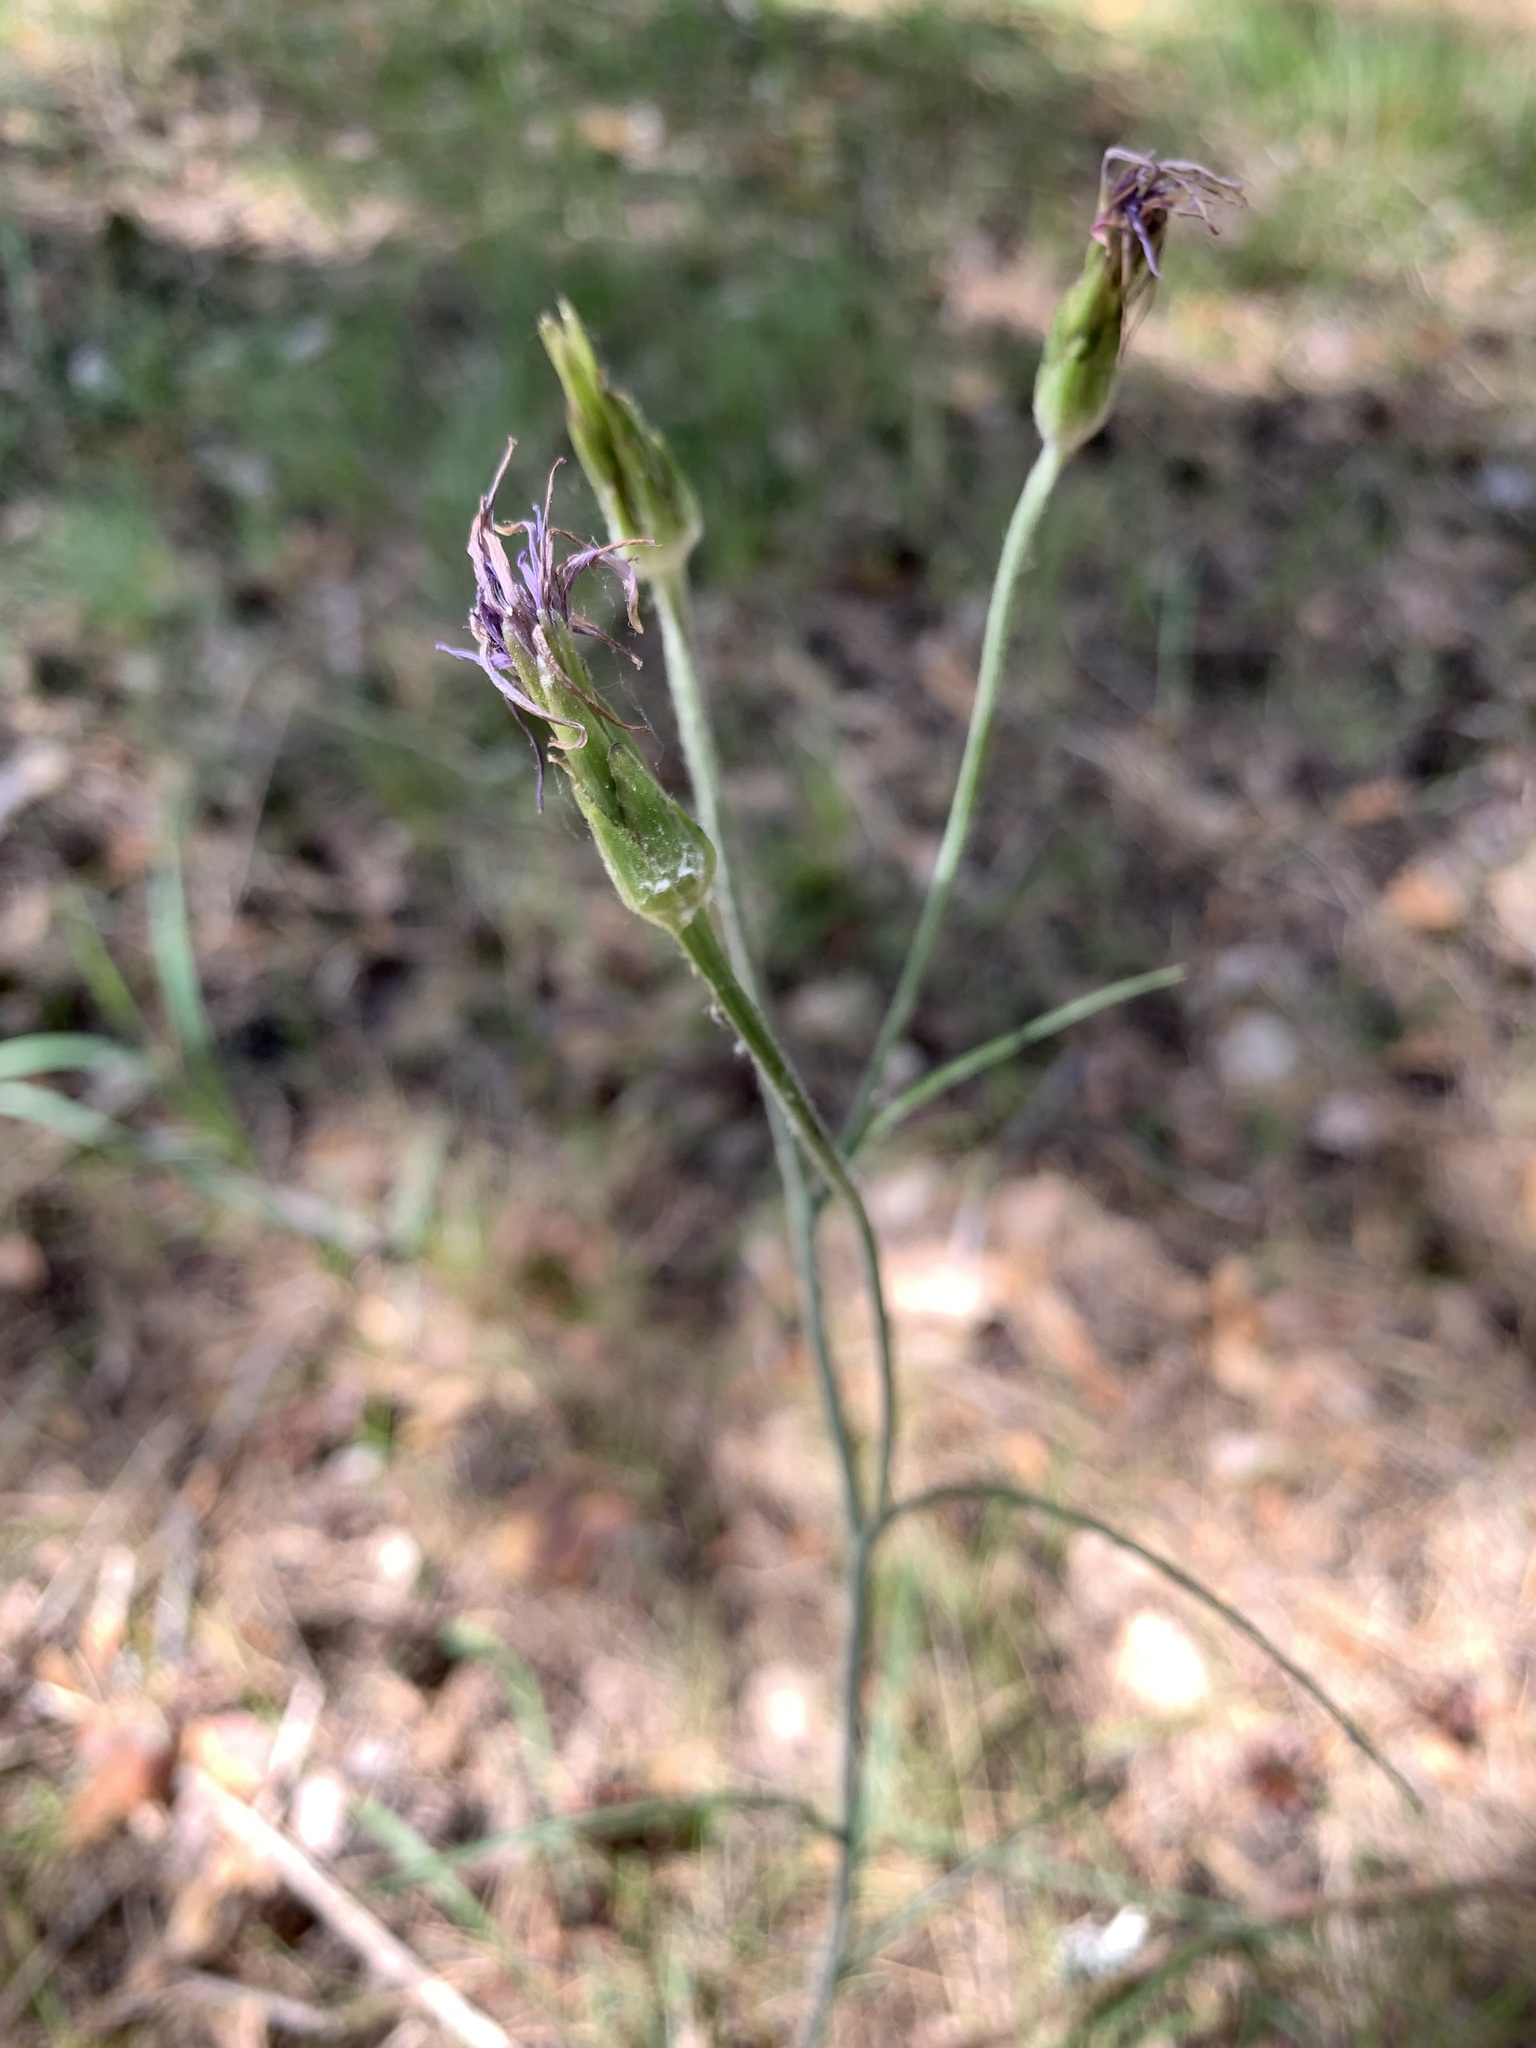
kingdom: Plantae
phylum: Tracheophyta
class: Magnoliopsida
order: Asterales
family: Asteraceae
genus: Scorzonera
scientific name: Scorzonera purpurea
